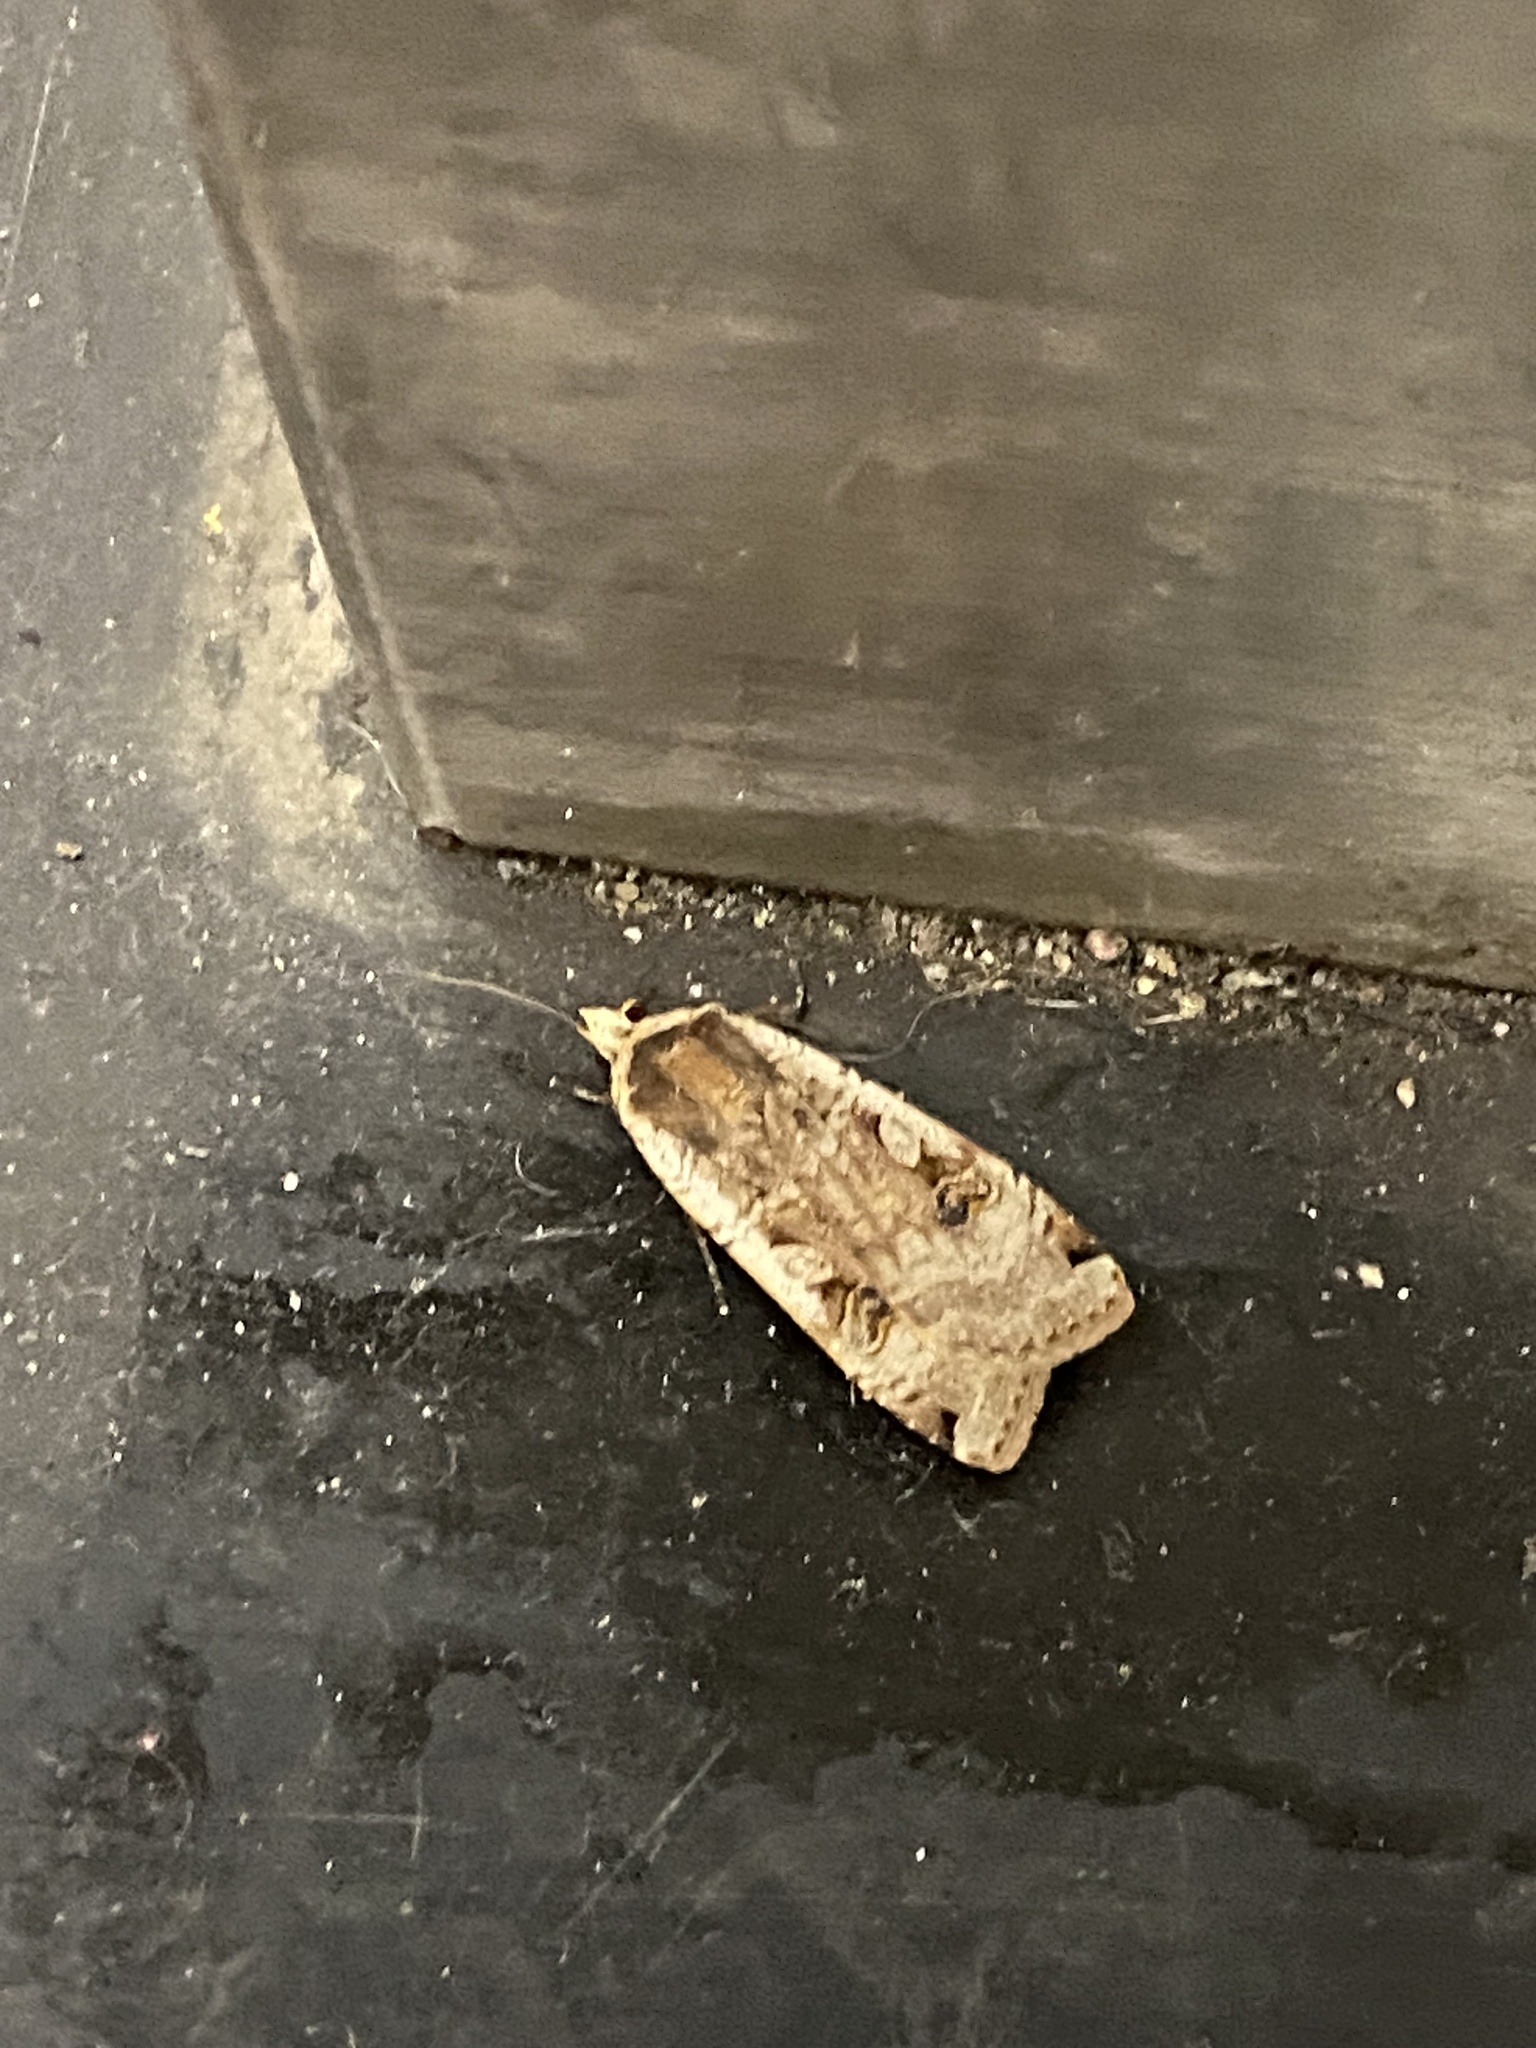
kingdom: Animalia
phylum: Arthropoda
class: Insecta
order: Lepidoptera
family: Noctuidae
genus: Noctua
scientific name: Noctua pronuba
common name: Large yellow underwing
